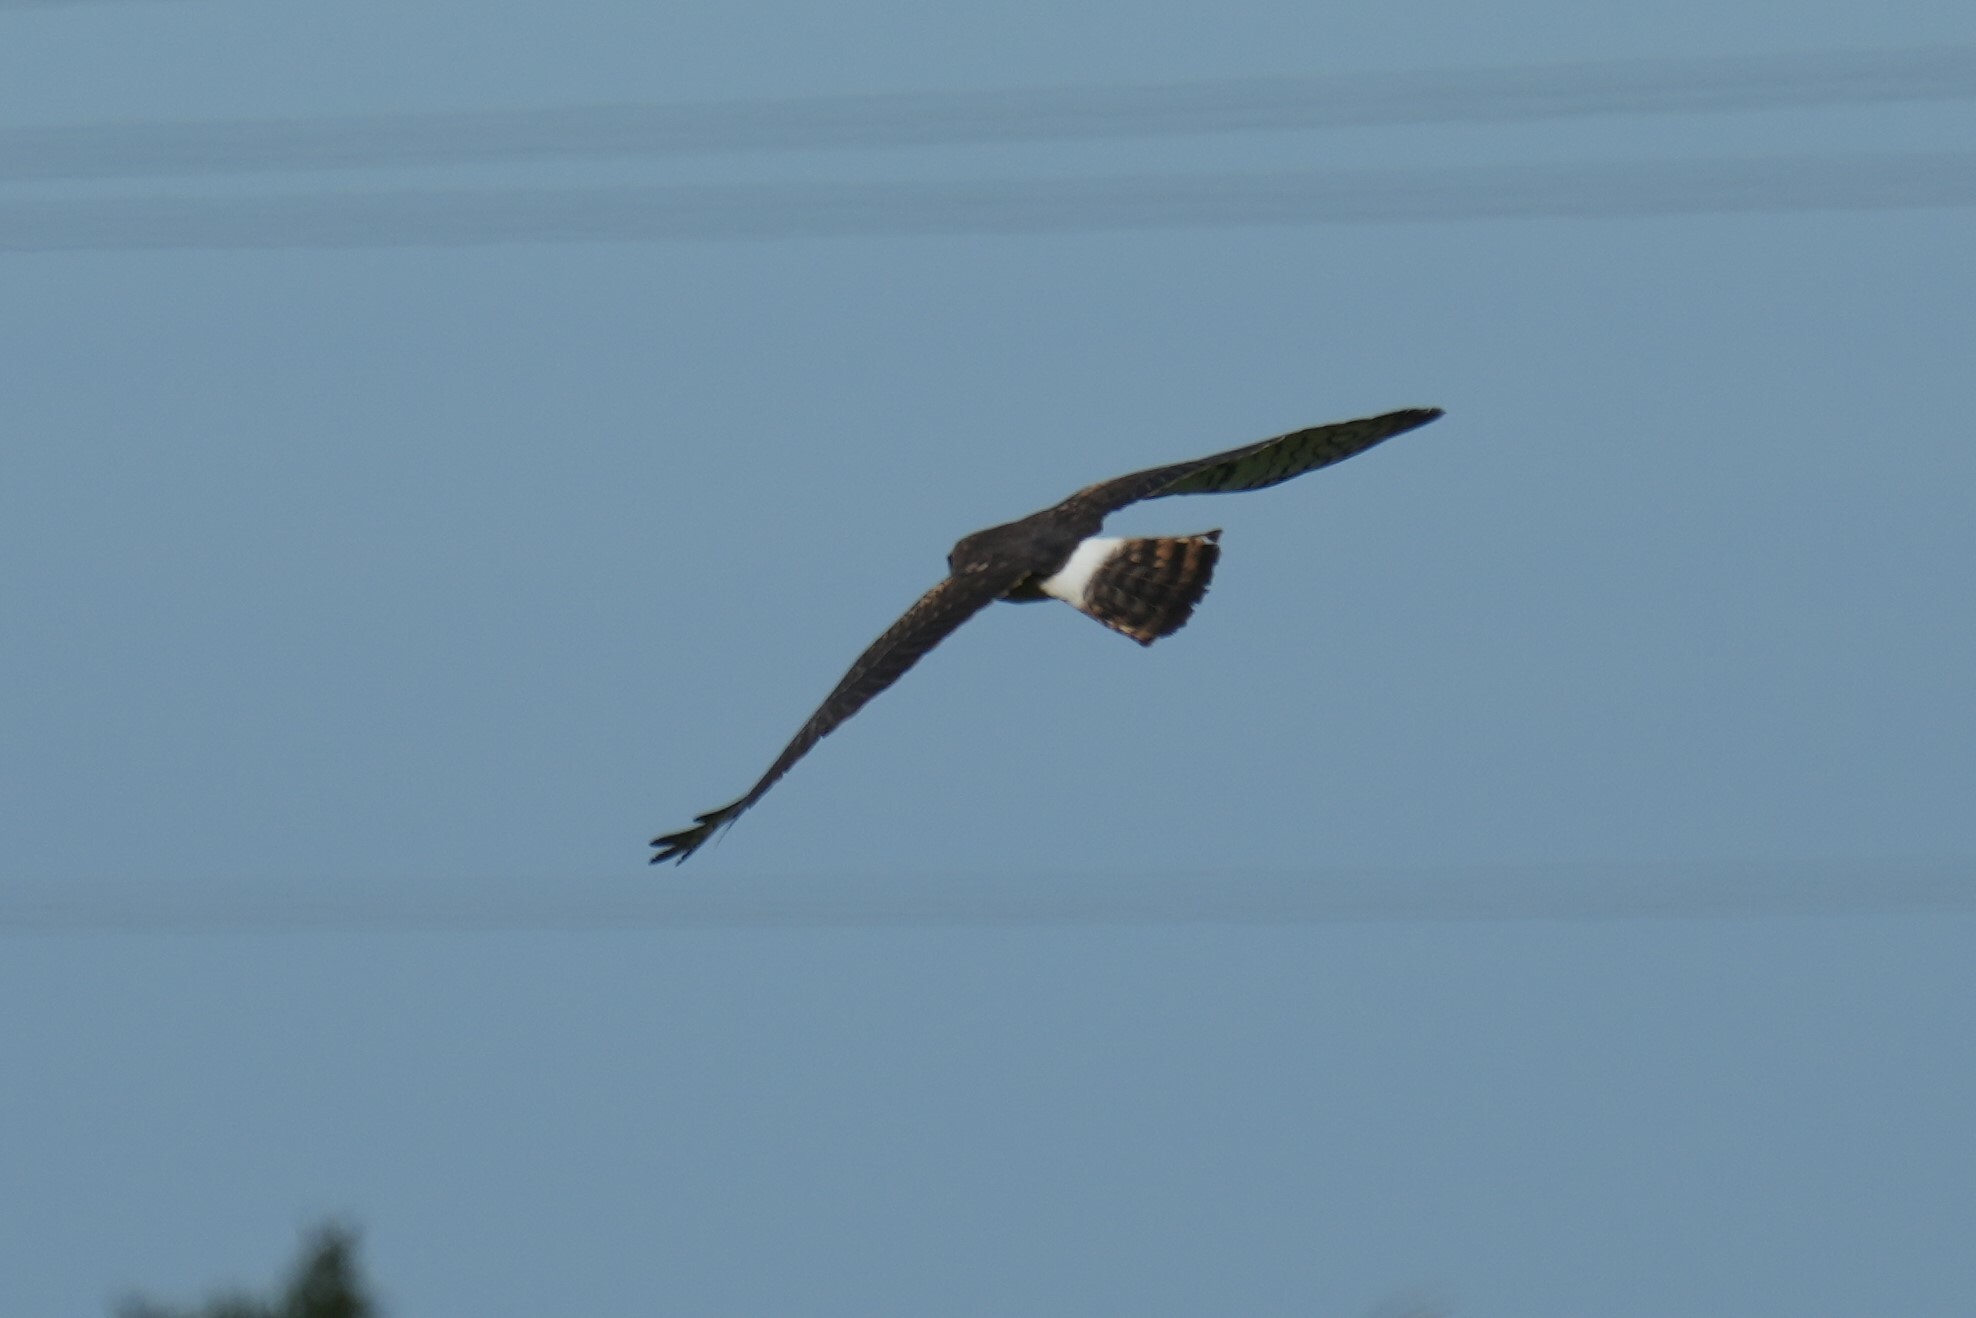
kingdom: Animalia
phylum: Chordata
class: Aves
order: Accipitriformes
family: Accipitridae
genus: Circus
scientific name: Circus cyaneus
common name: Hen harrier
